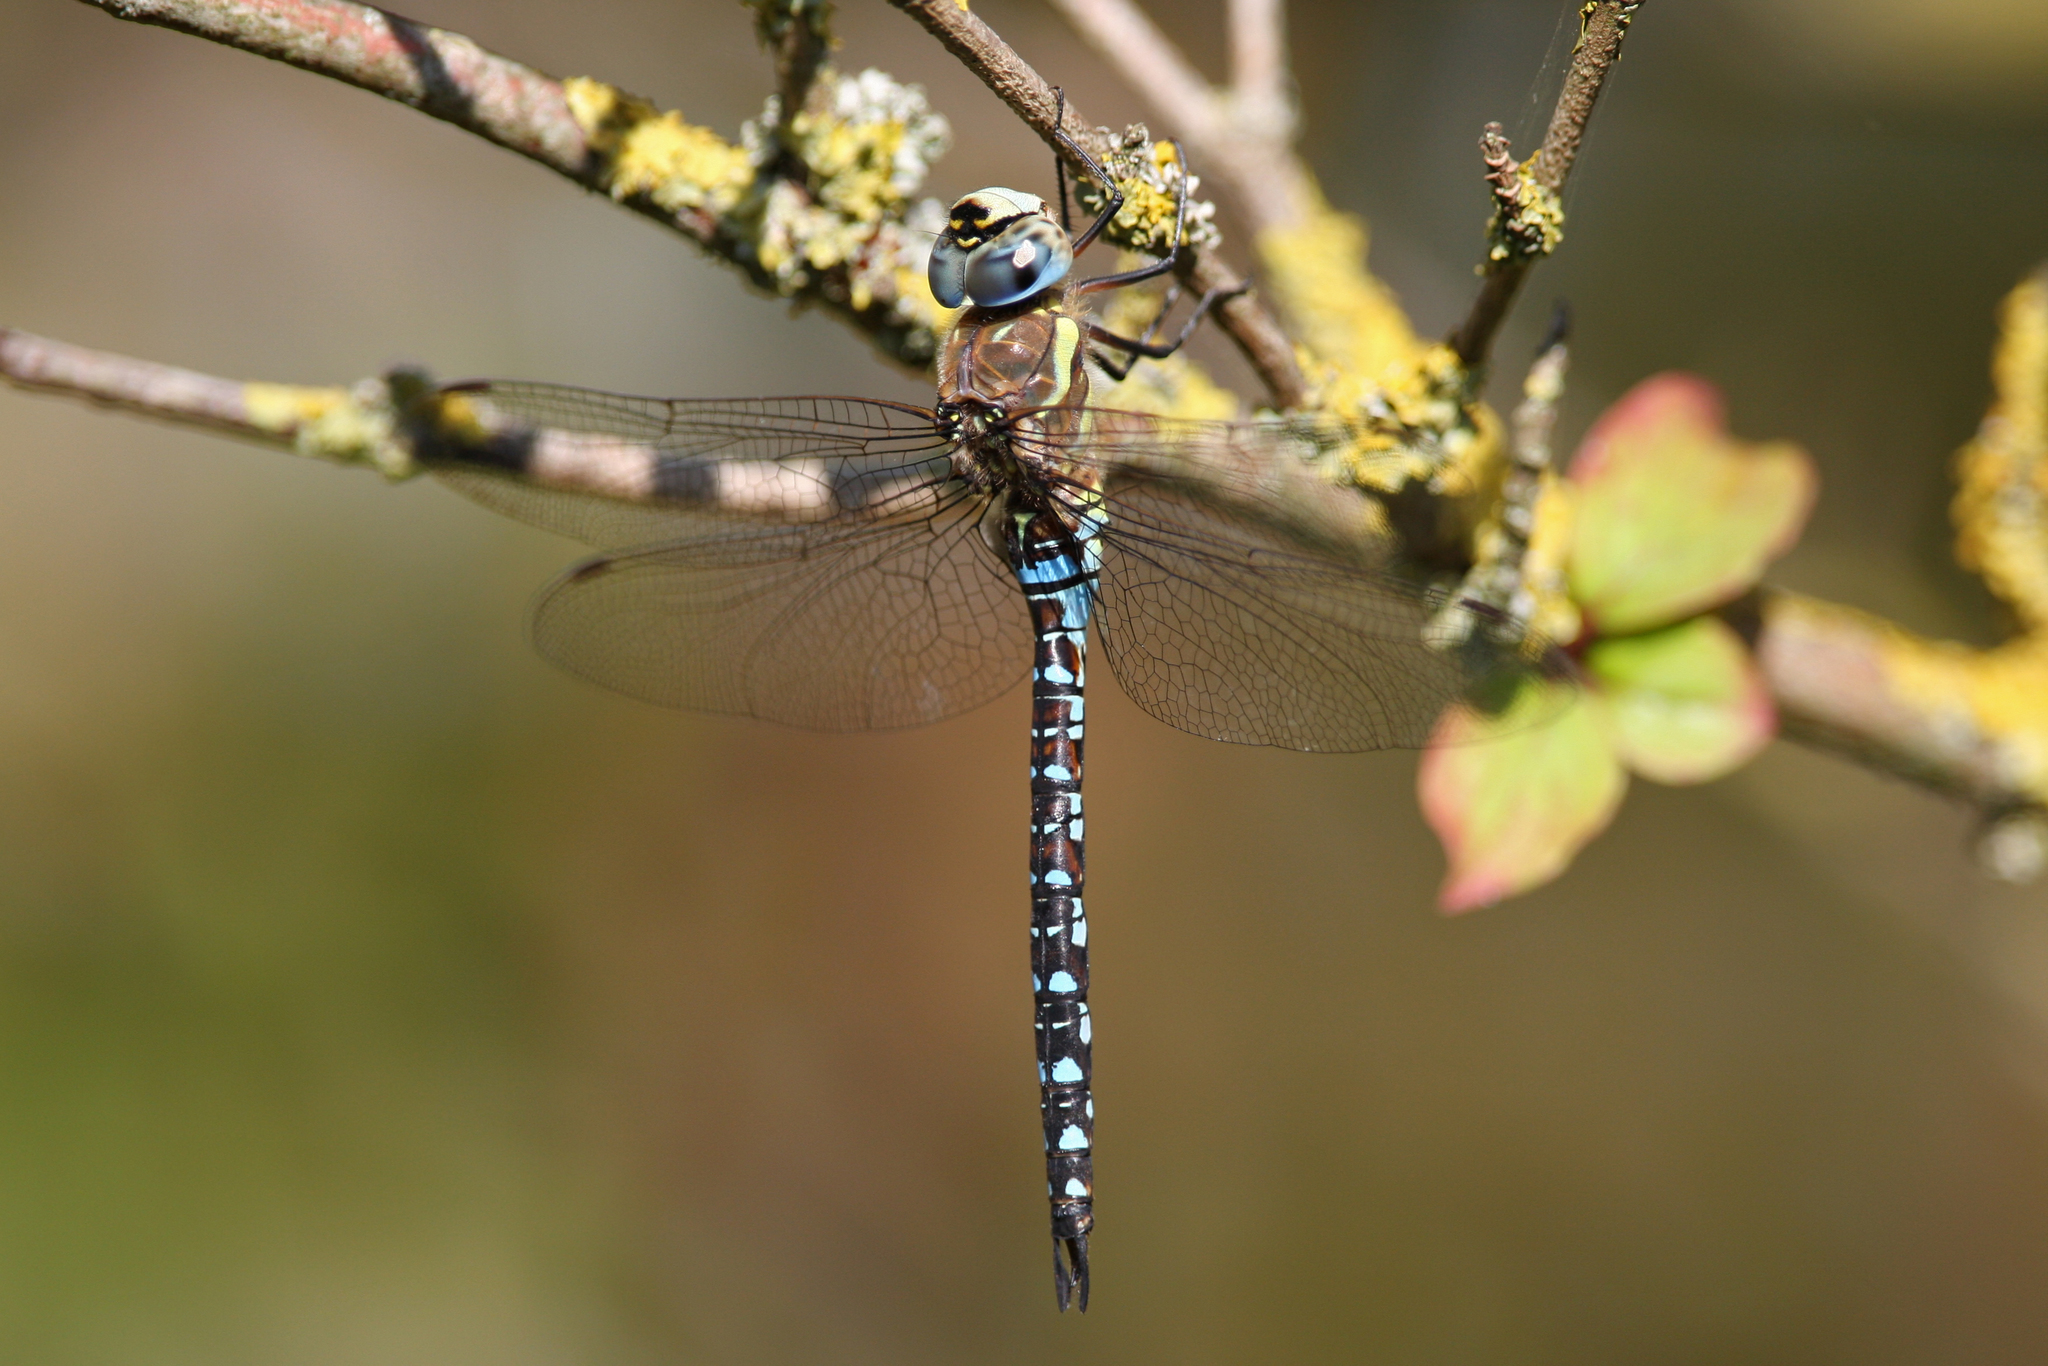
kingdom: Animalia
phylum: Arthropoda
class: Insecta
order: Odonata
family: Aeshnidae
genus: Aeshna
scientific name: Aeshna mixta
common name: Migrant hawker
